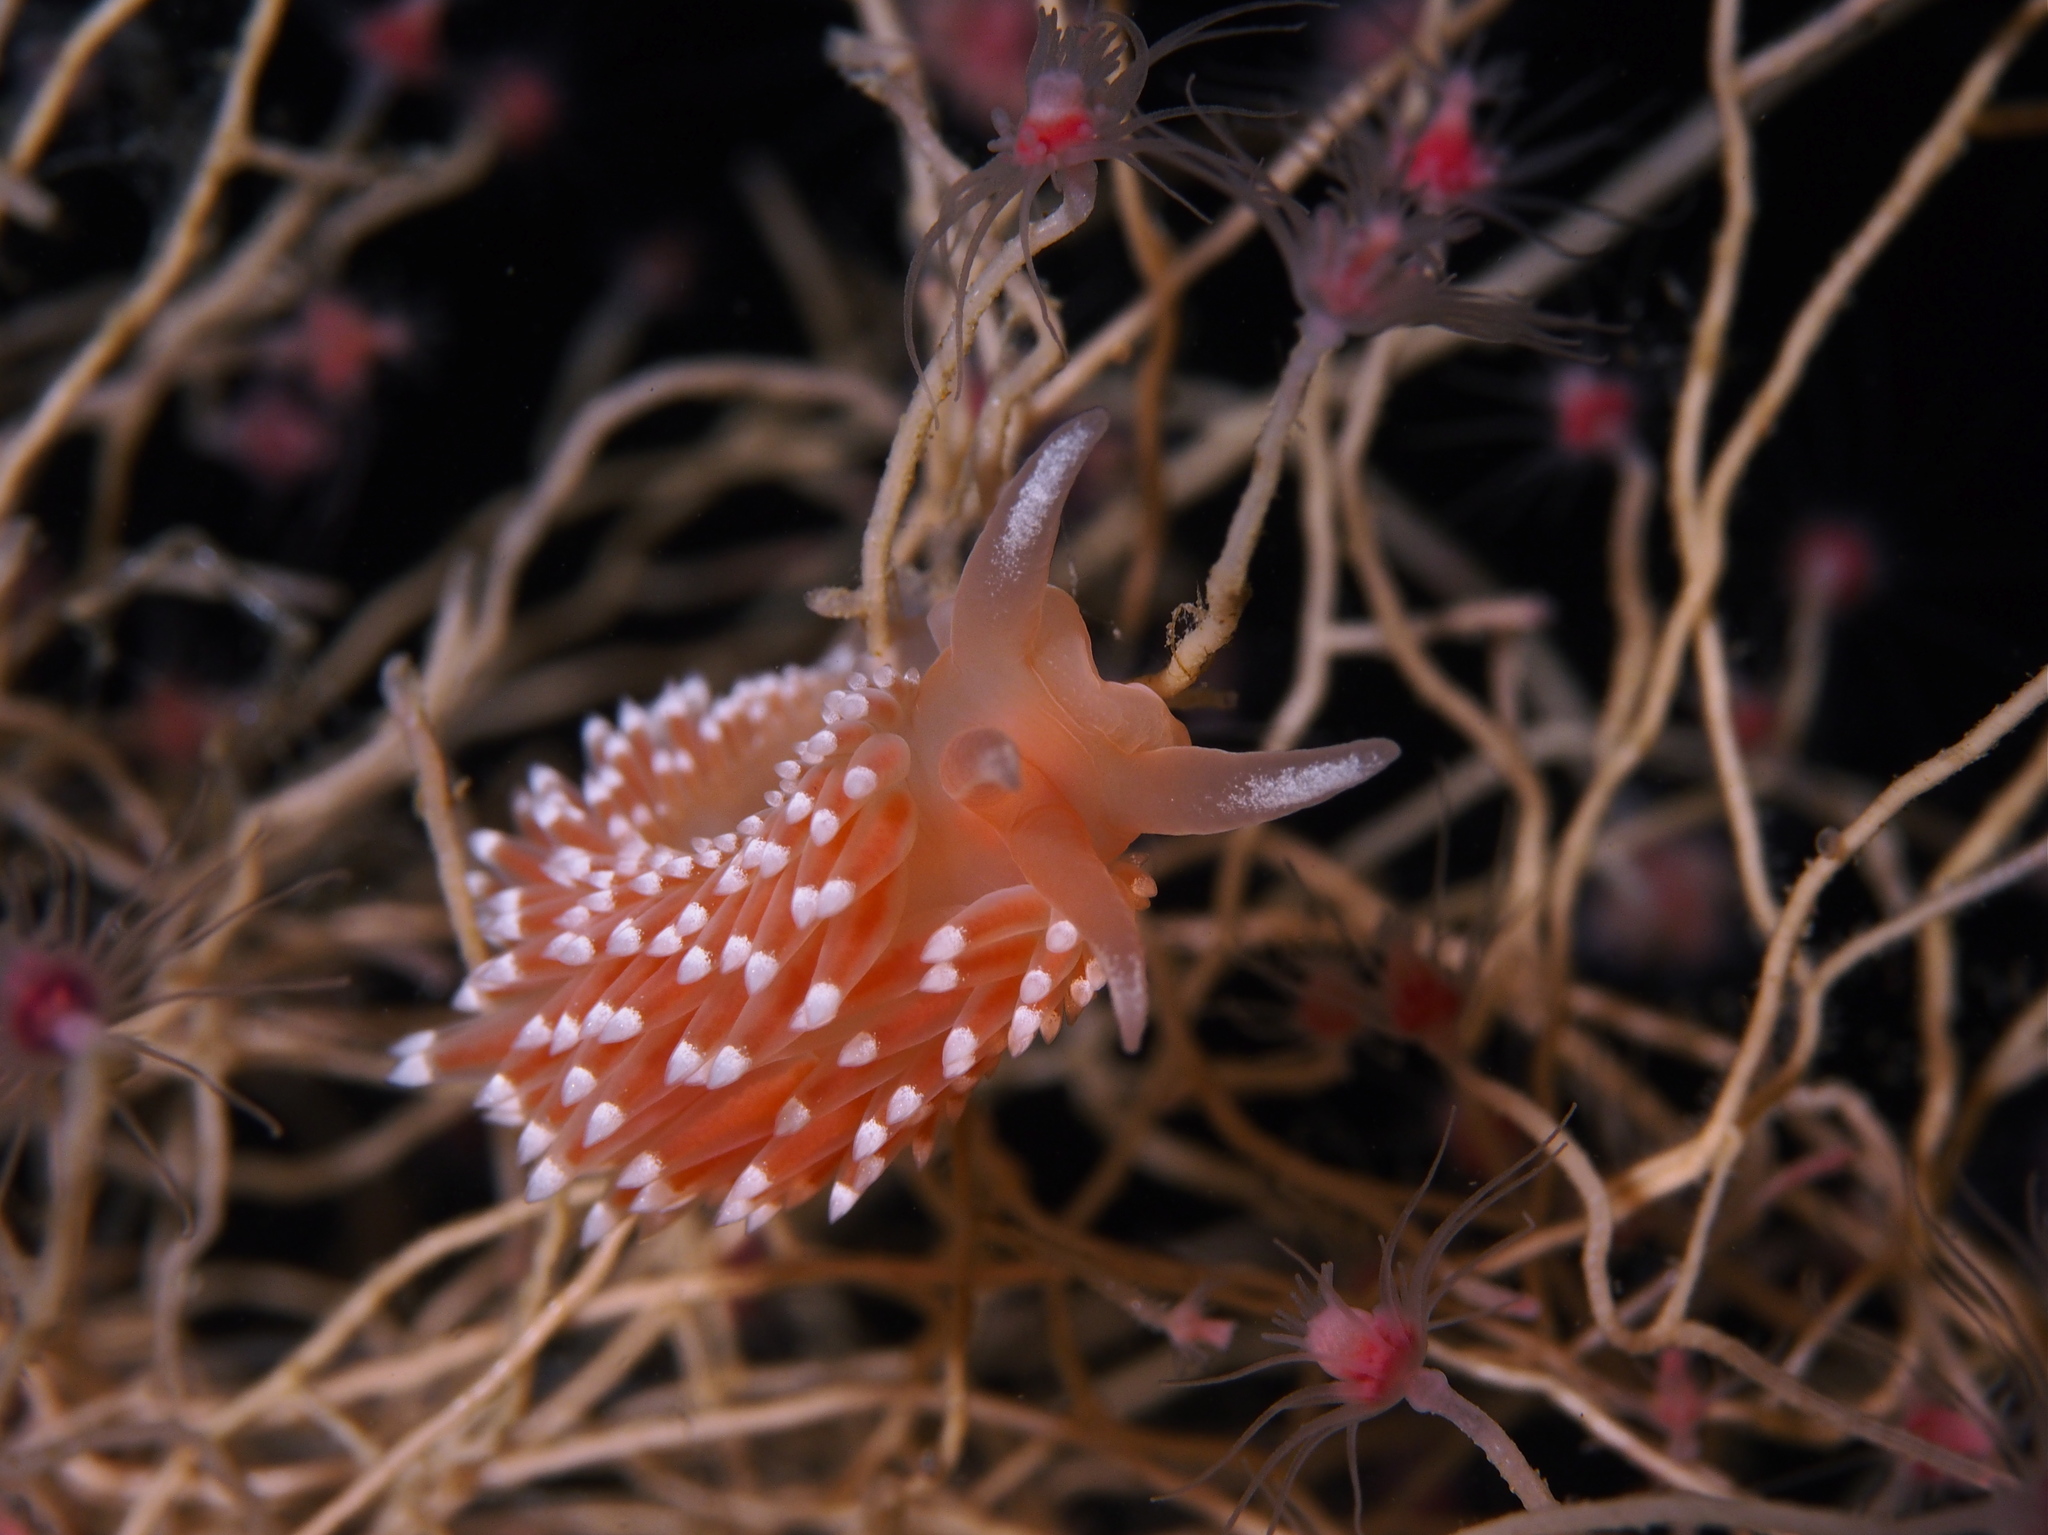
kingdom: Animalia
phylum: Mollusca
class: Gastropoda
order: Nudibranchia
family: Facelinidae
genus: Facelina
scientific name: Facelina bostoniensis
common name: Boston facelina
